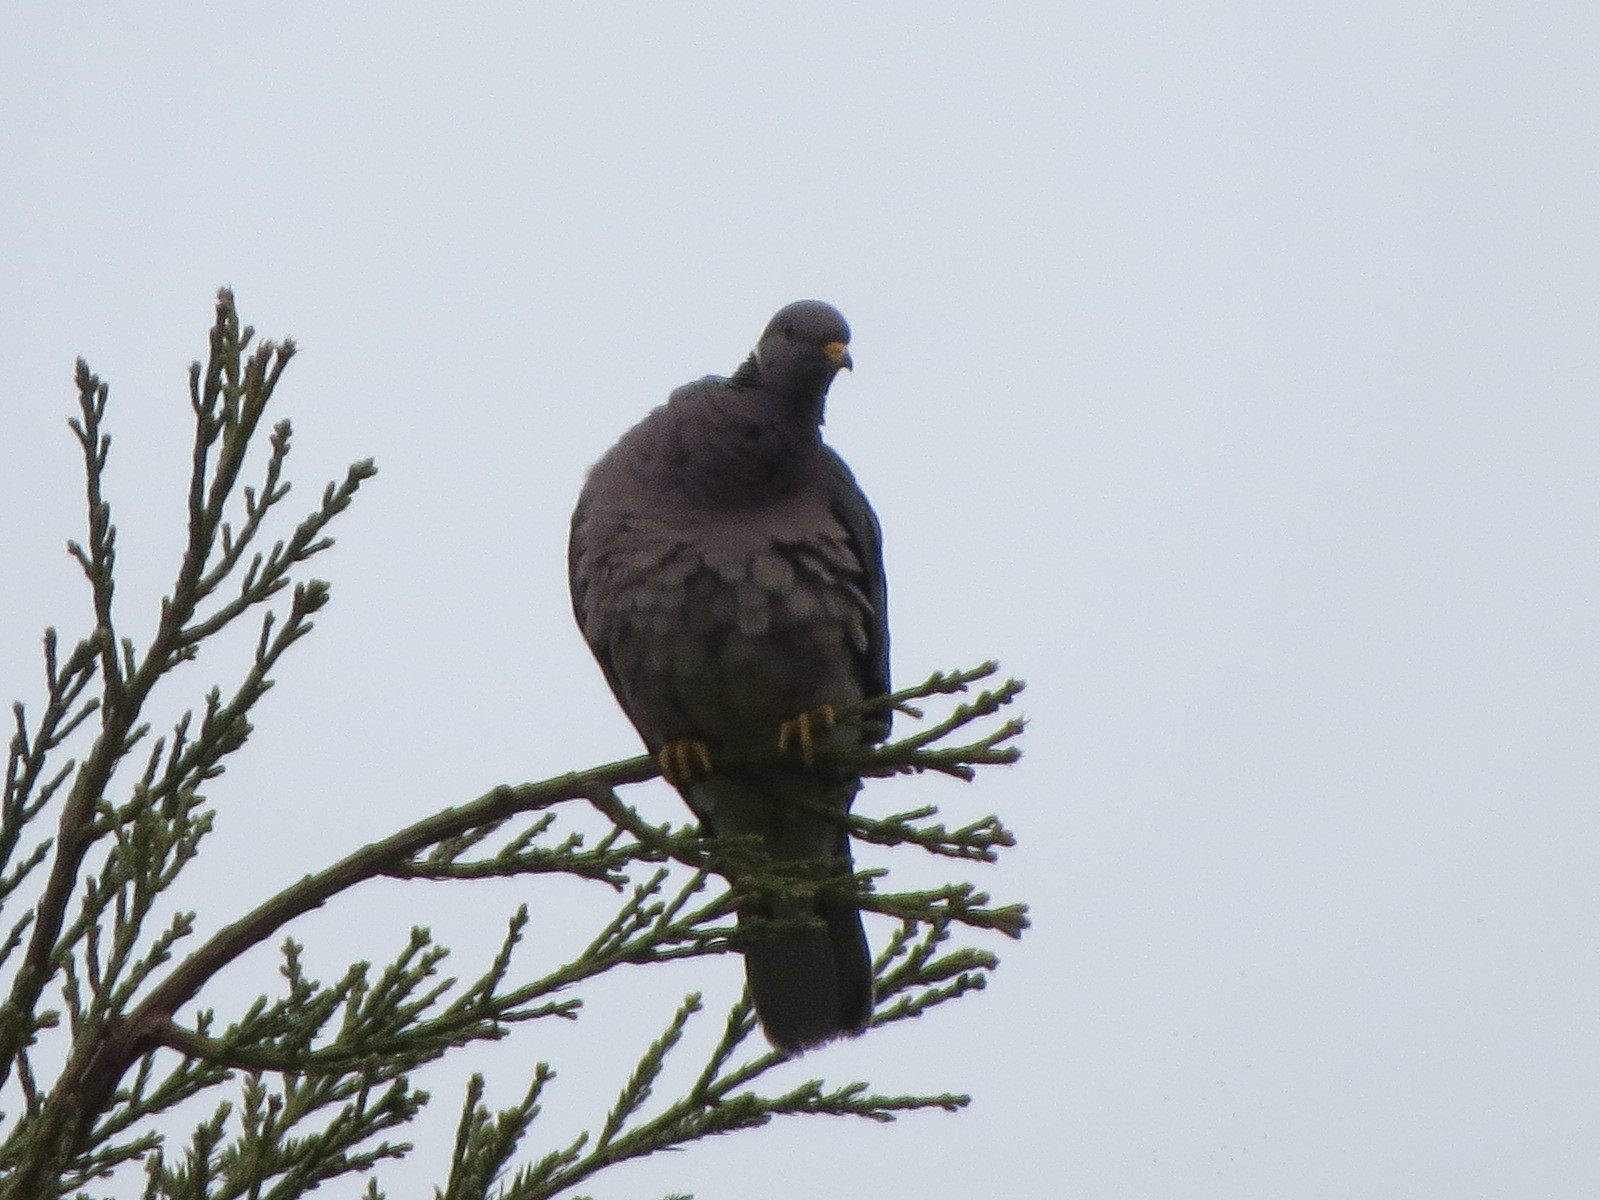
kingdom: Animalia
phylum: Chordata
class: Aves
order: Columbiformes
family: Columbidae
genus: Patagioenas
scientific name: Patagioenas fasciata
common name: Band-tailed pigeon
